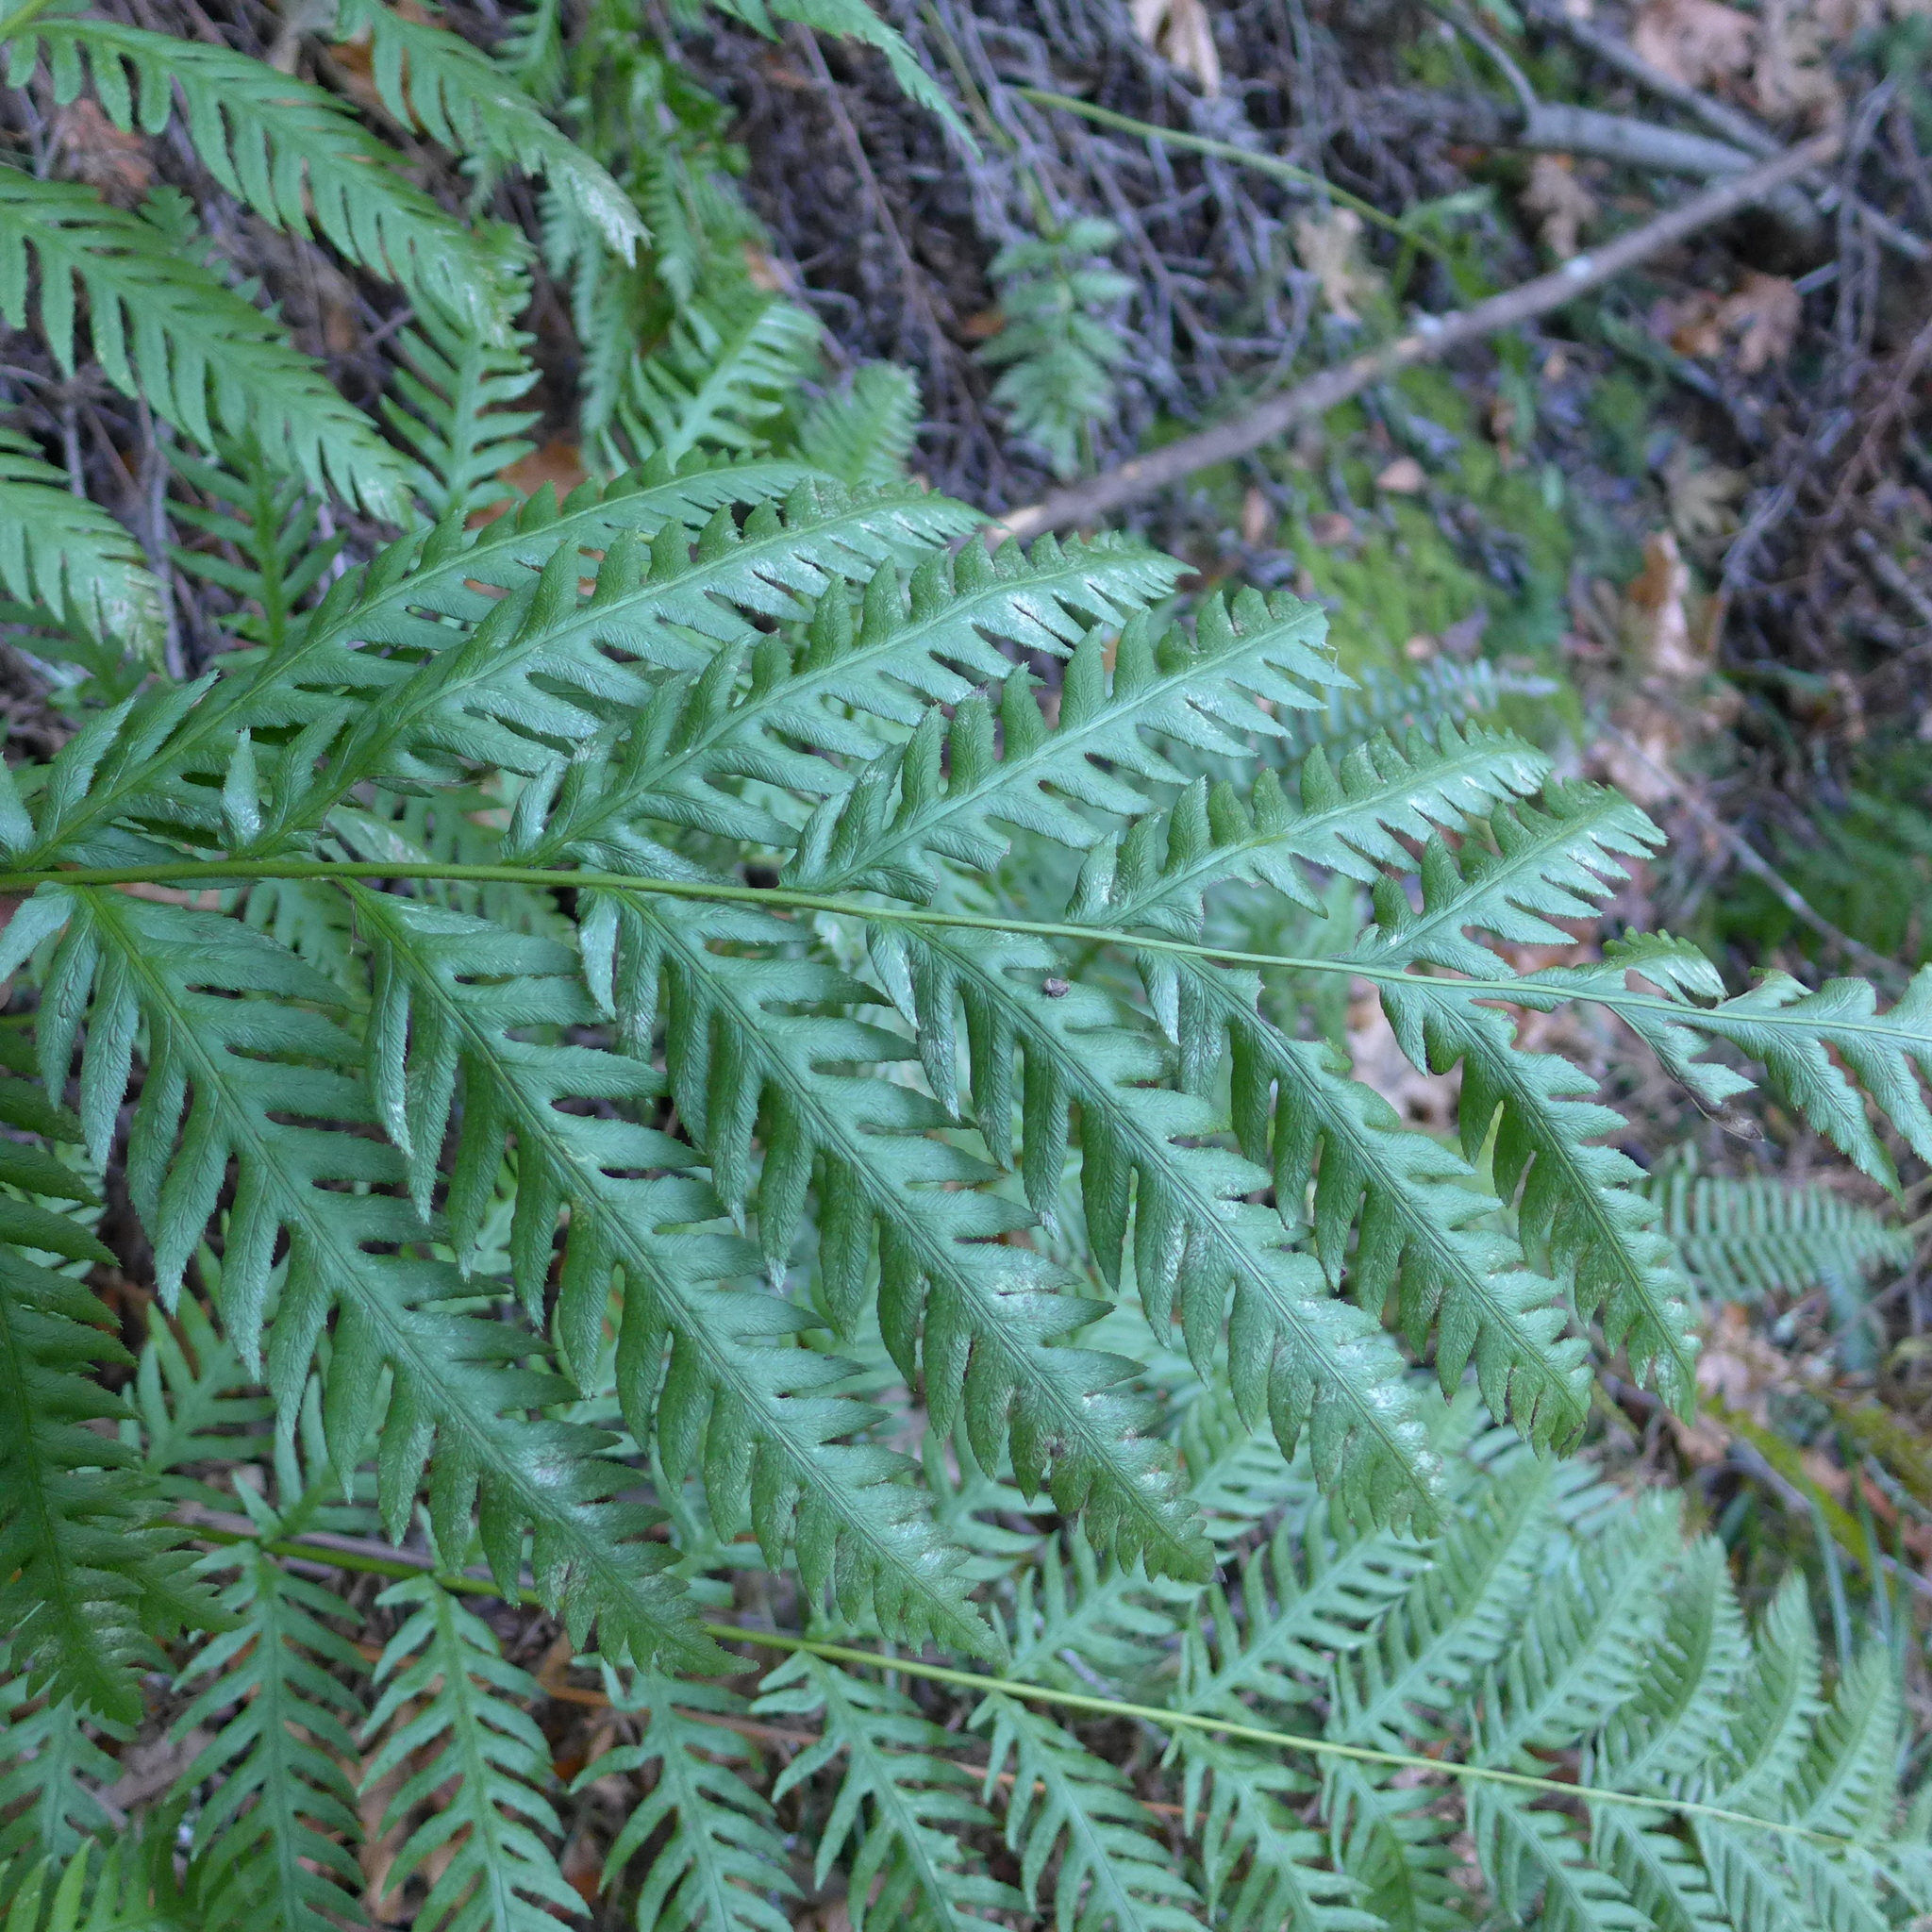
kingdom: Plantae
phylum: Tracheophyta
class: Polypodiopsida
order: Polypodiales
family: Blechnaceae
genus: Woodwardia
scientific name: Woodwardia fimbriata
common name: Giant chain fern
